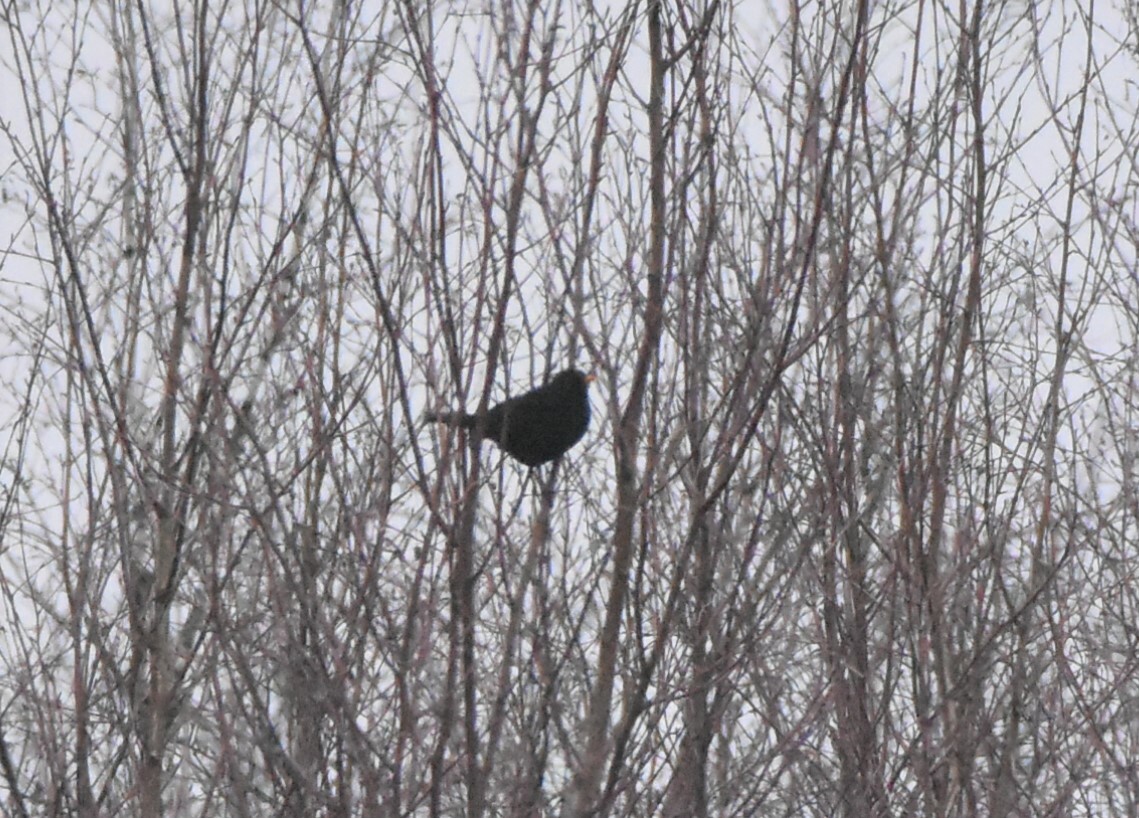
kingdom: Animalia
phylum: Chordata
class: Aves
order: Passeriformes
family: Turdidae
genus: Turdus
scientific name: Turdus merula
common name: Common blackbird
